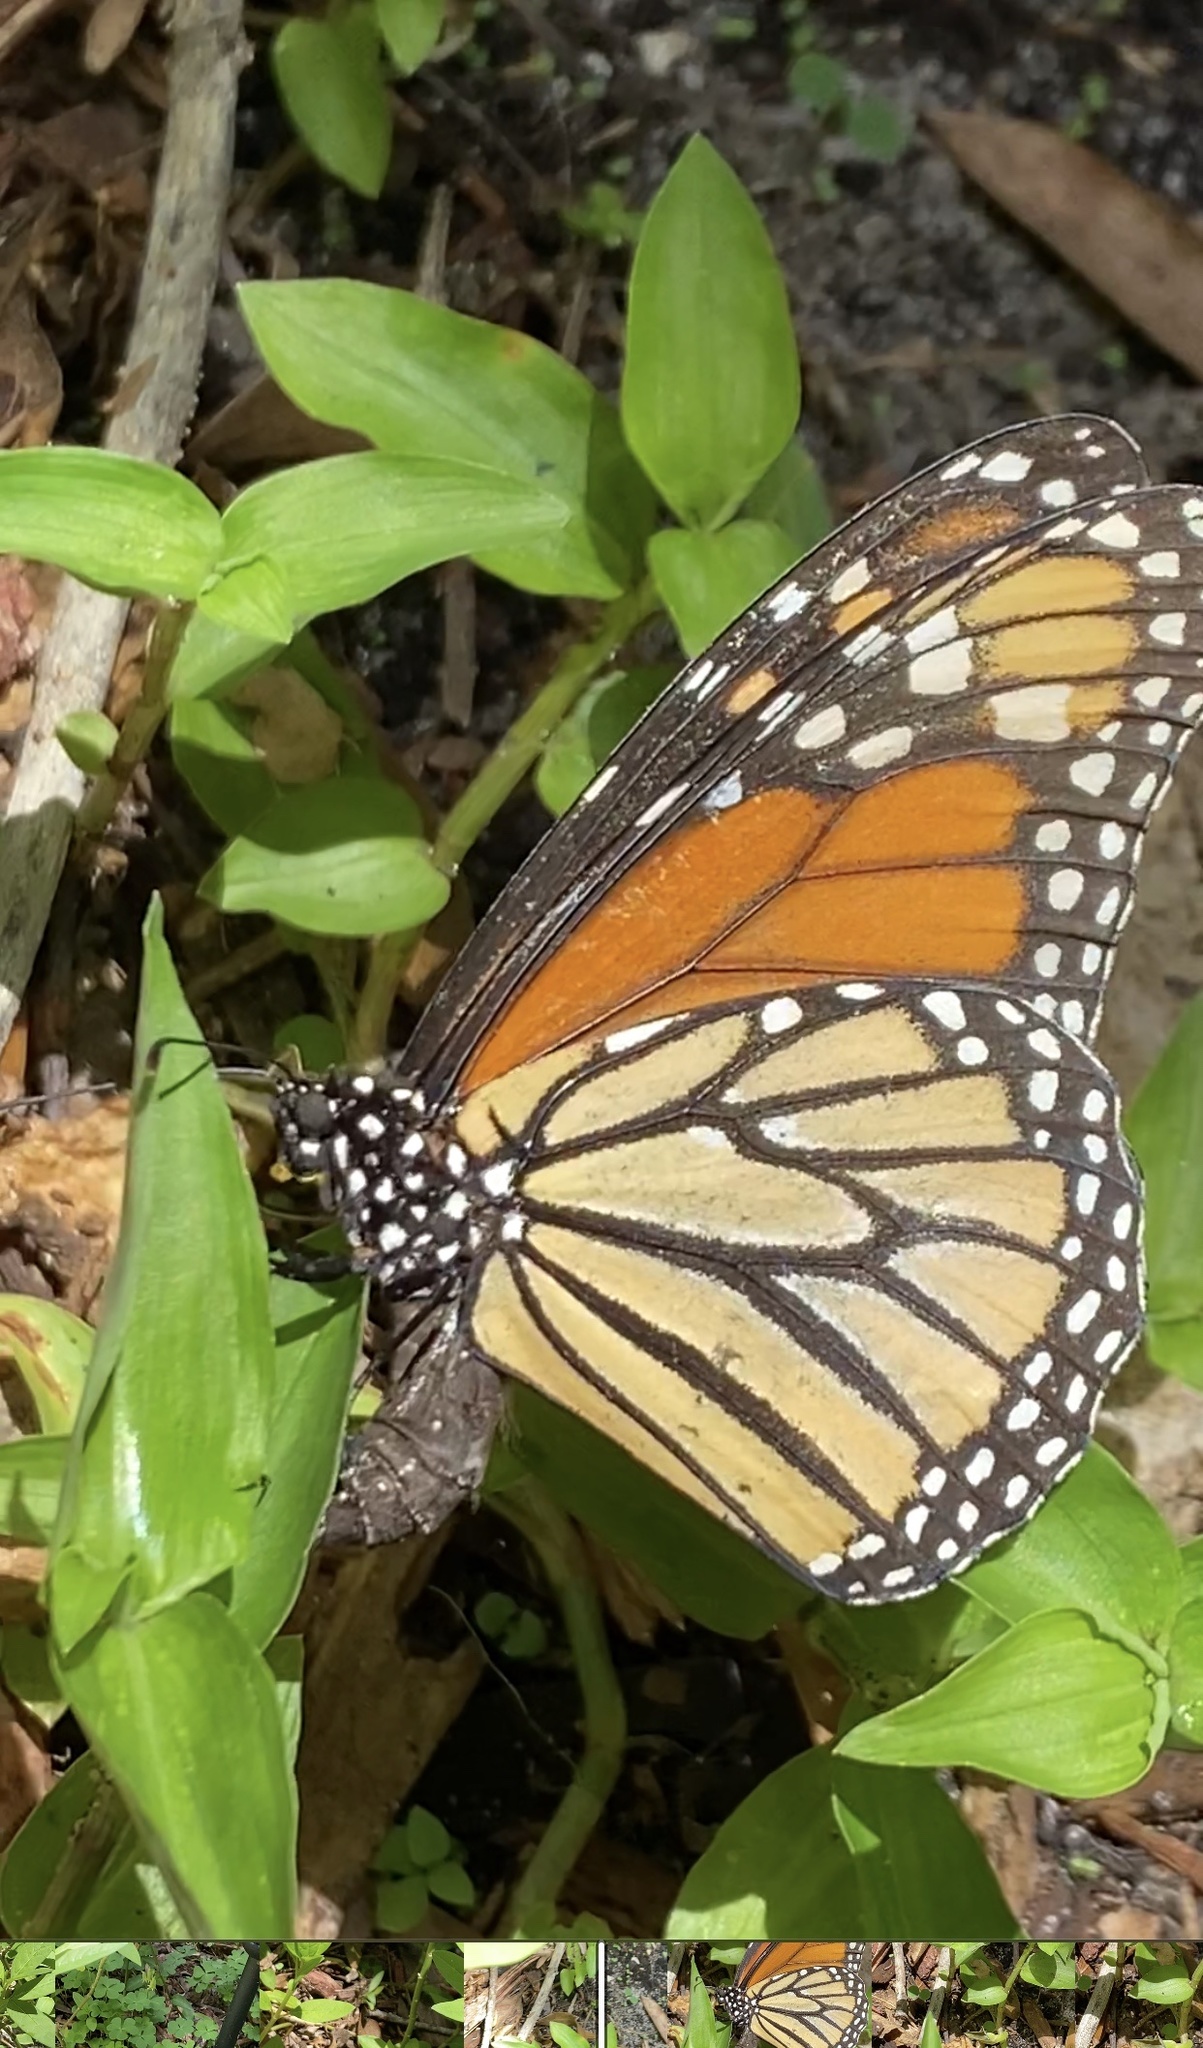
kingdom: Animalia
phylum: Arthropoda
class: Insecta
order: Lepidoptera
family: Nymphalidae
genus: Danaus
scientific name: Danaus plexippus
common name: Monarch
